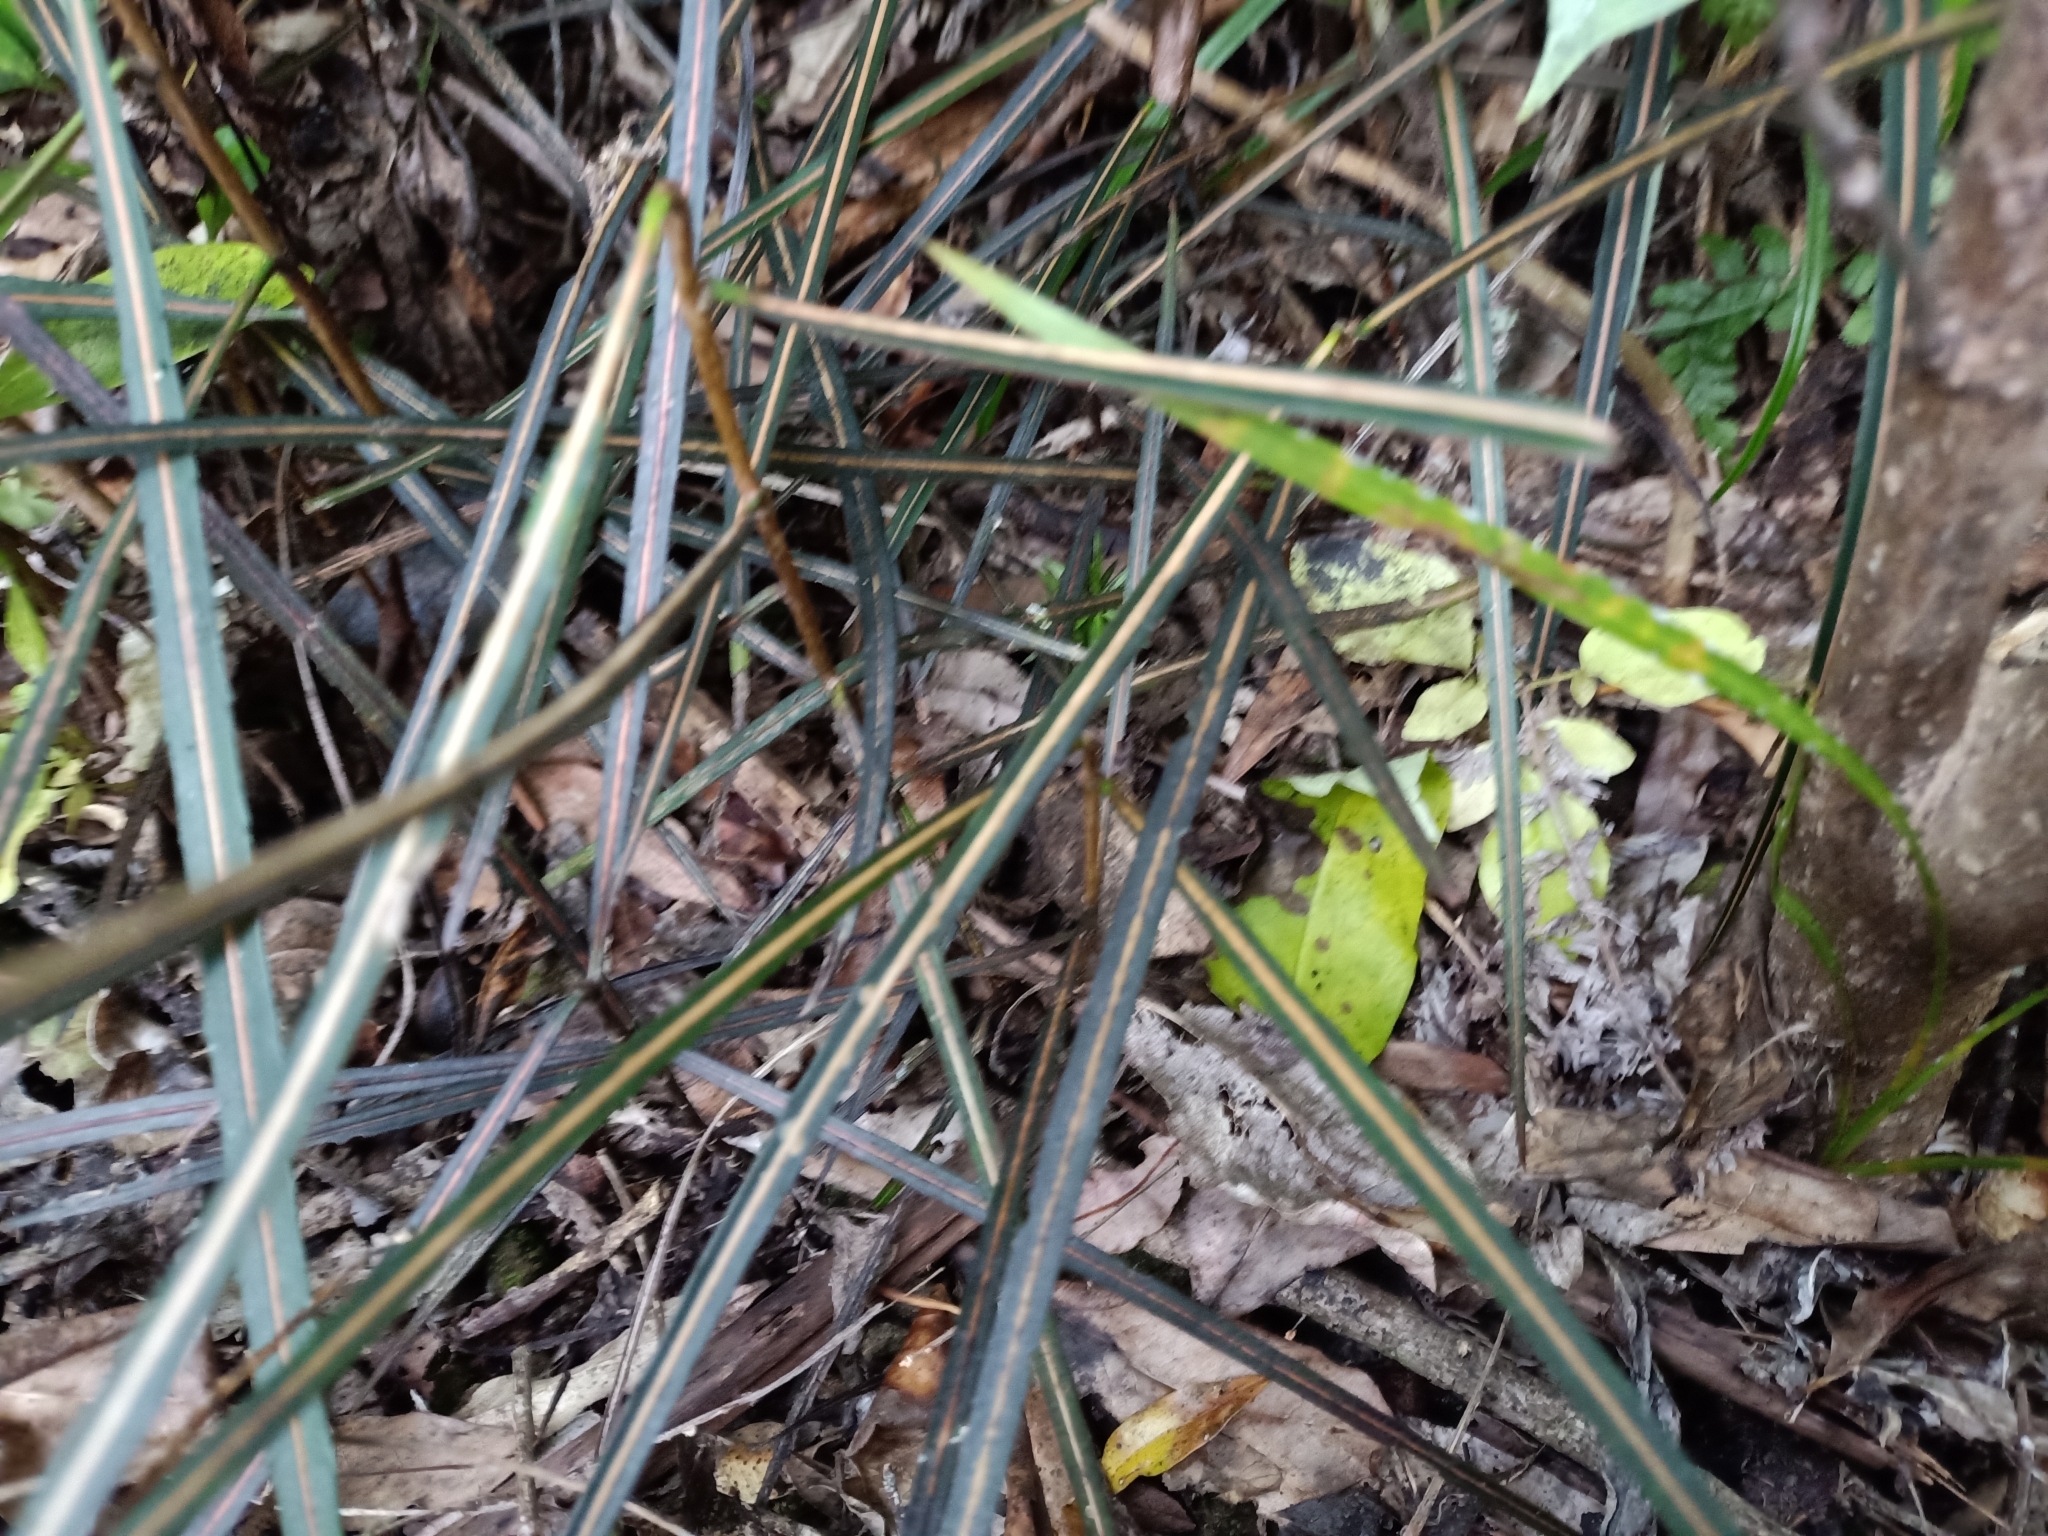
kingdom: Plantae
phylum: Tracheophyta
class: Magnoliopsida
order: Apiales
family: Araliaceae
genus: Pseudopanax
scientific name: Pseudopanax crassifolius
